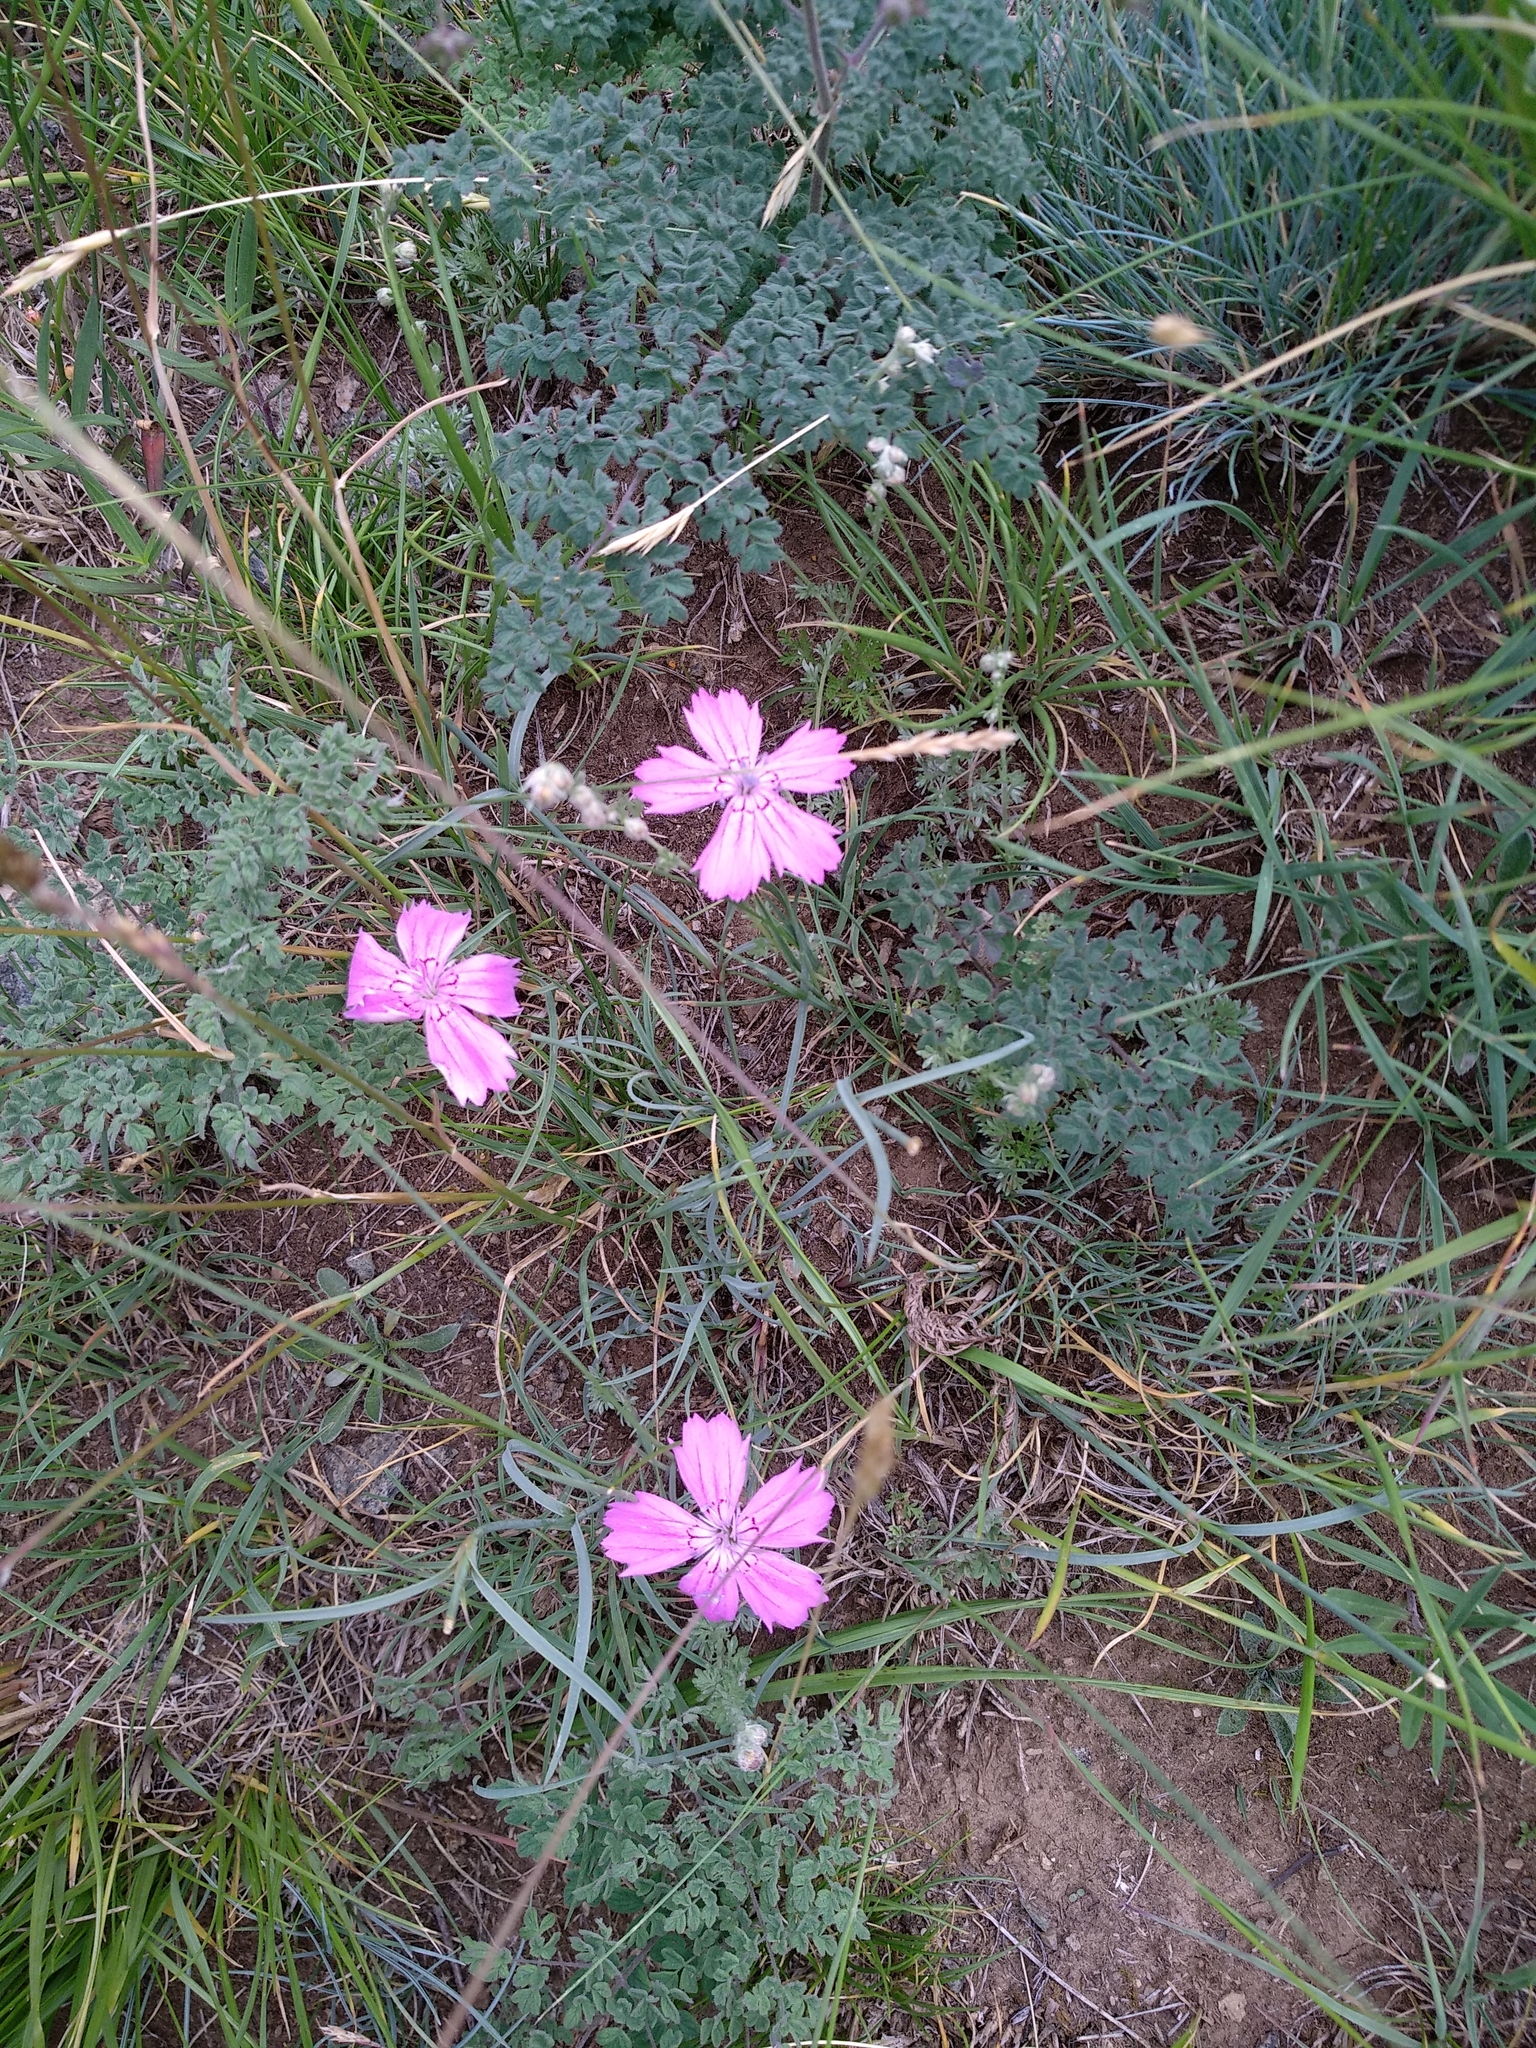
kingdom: Plantae
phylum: Tracheophyta
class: Magnoliopsida
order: Caryophyllales
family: Caryophyllaceae
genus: Dianthus
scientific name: Dianthus chinensis
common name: Rainbow pink
